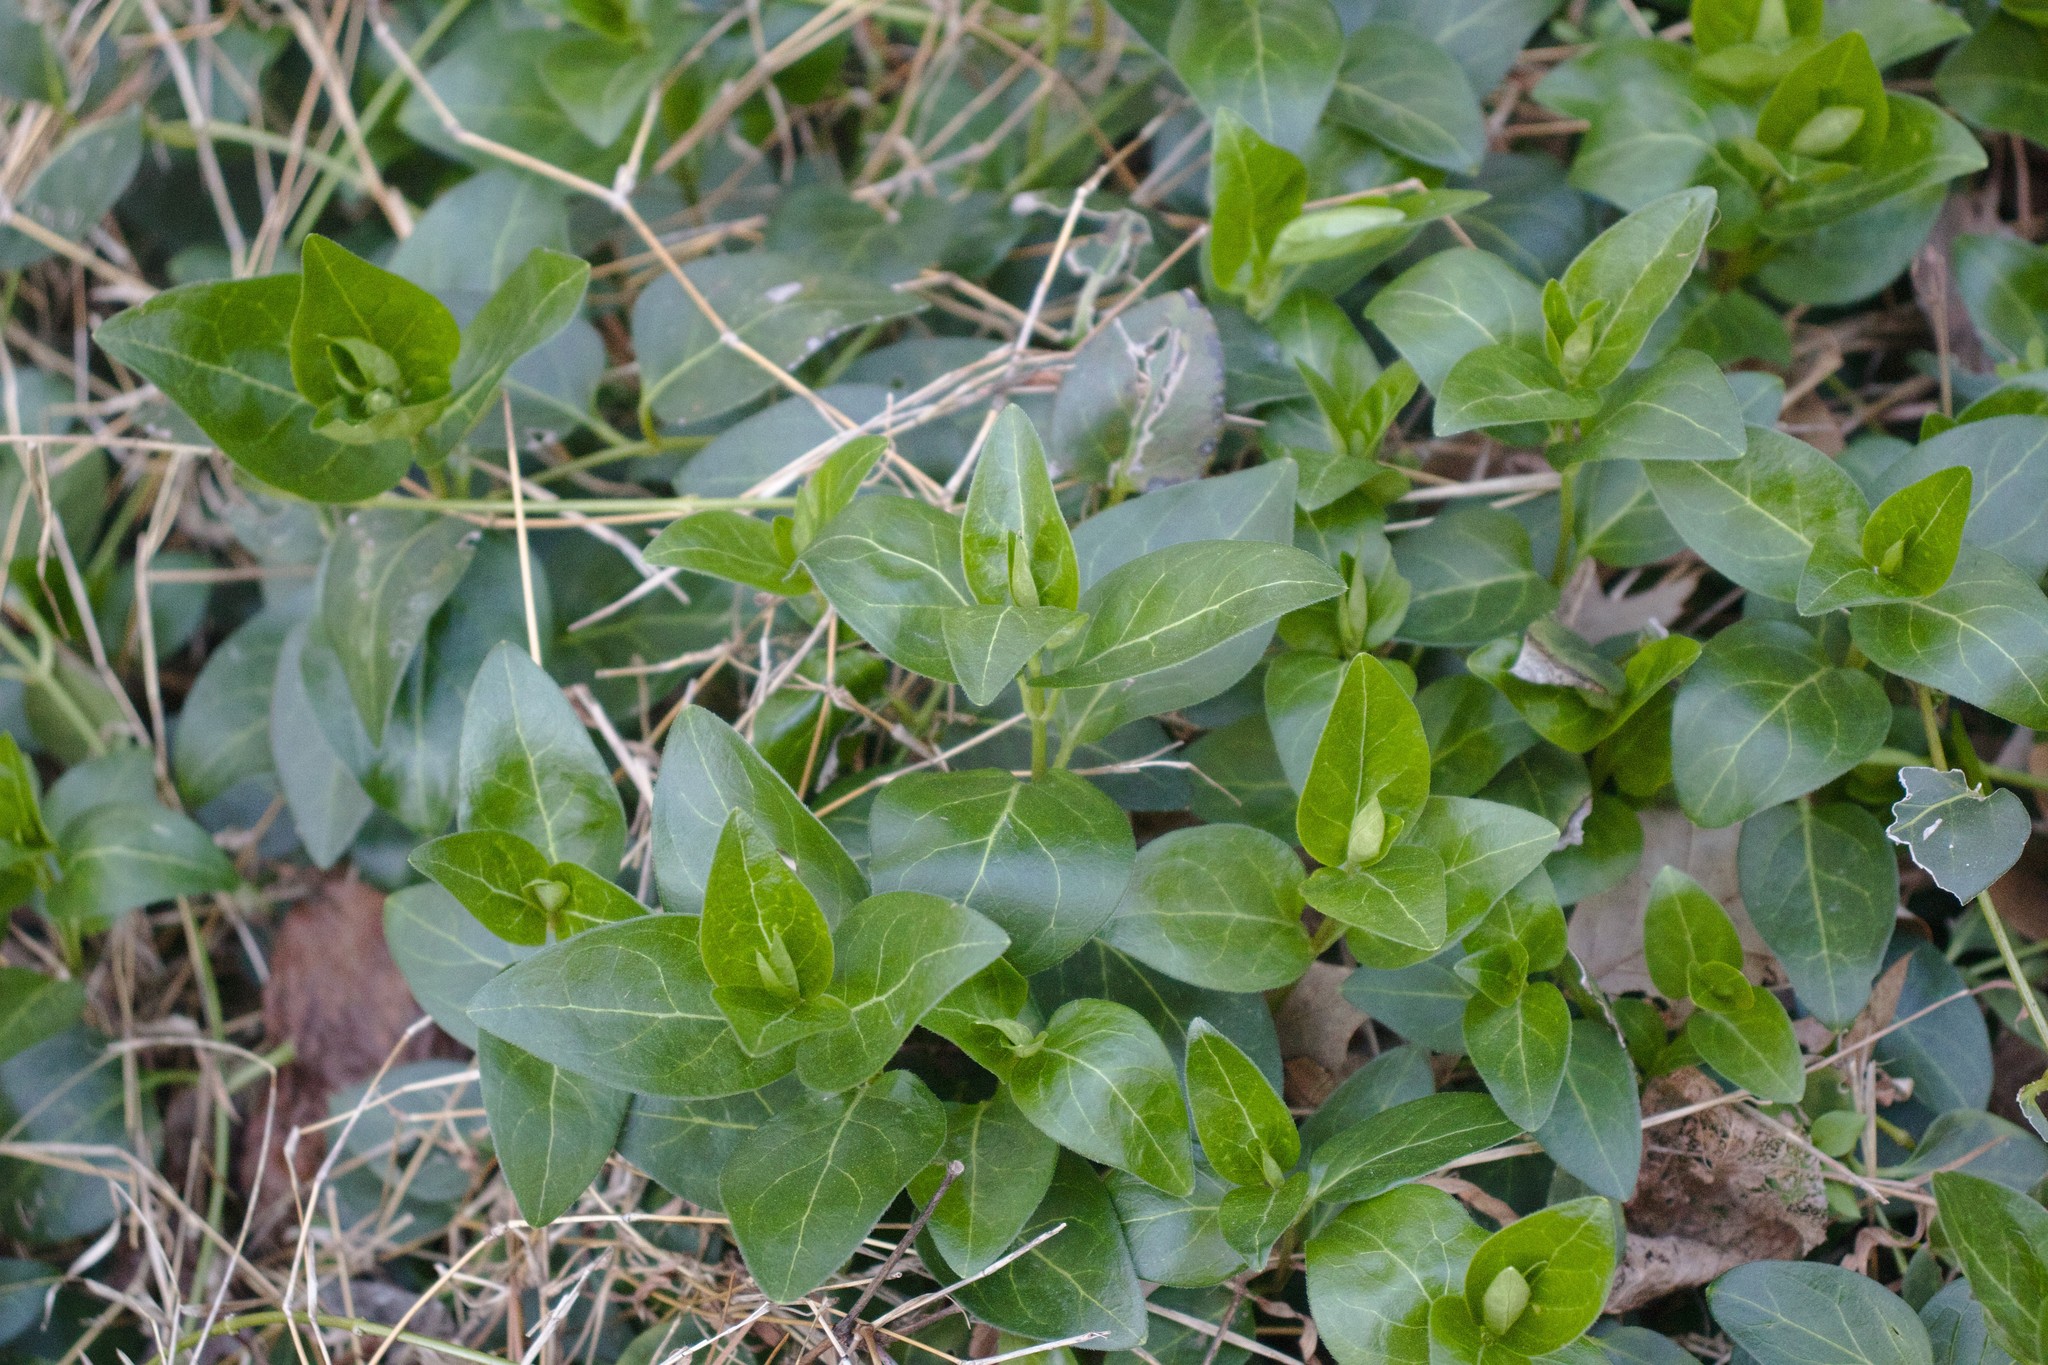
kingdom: Plantae
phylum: Tracheophyta
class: Magnoliopsida
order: Gentianales
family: Apocynaceae
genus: Vinca
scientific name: Vinca major
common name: Greater periwinkle
